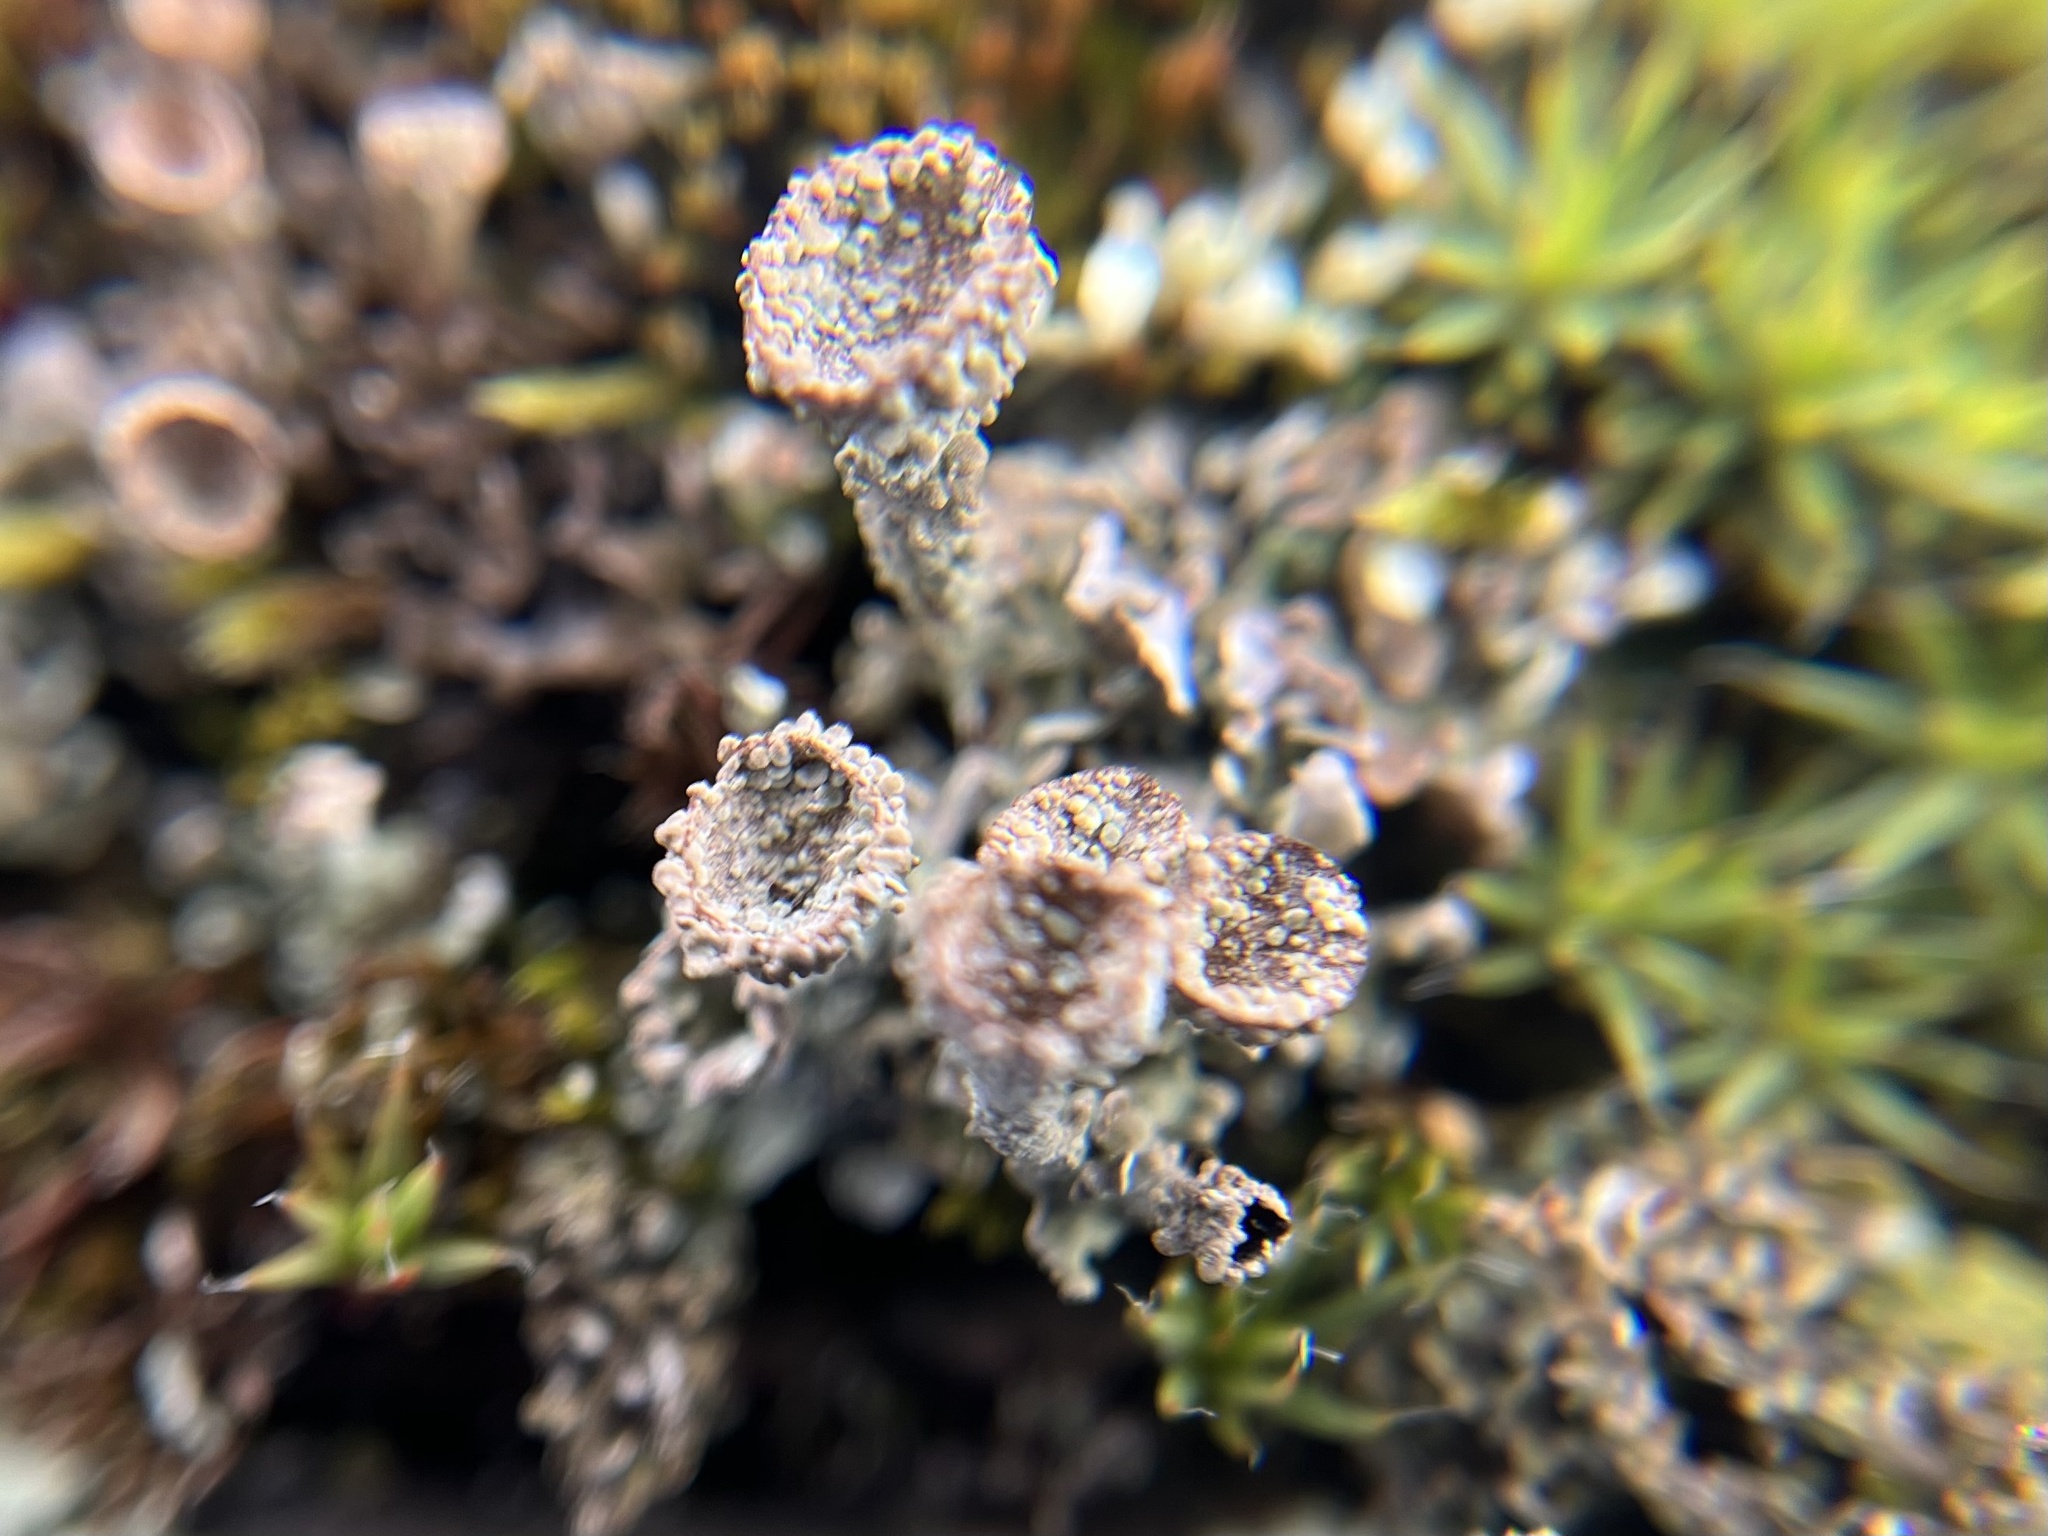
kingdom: Fungi
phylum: Ascomycota
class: Lecanoromycetes
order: Lecanorales
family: Cladoniaceae
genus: Cladonia
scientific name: Cladonia pyxidata
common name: Pebbled pixie cup
